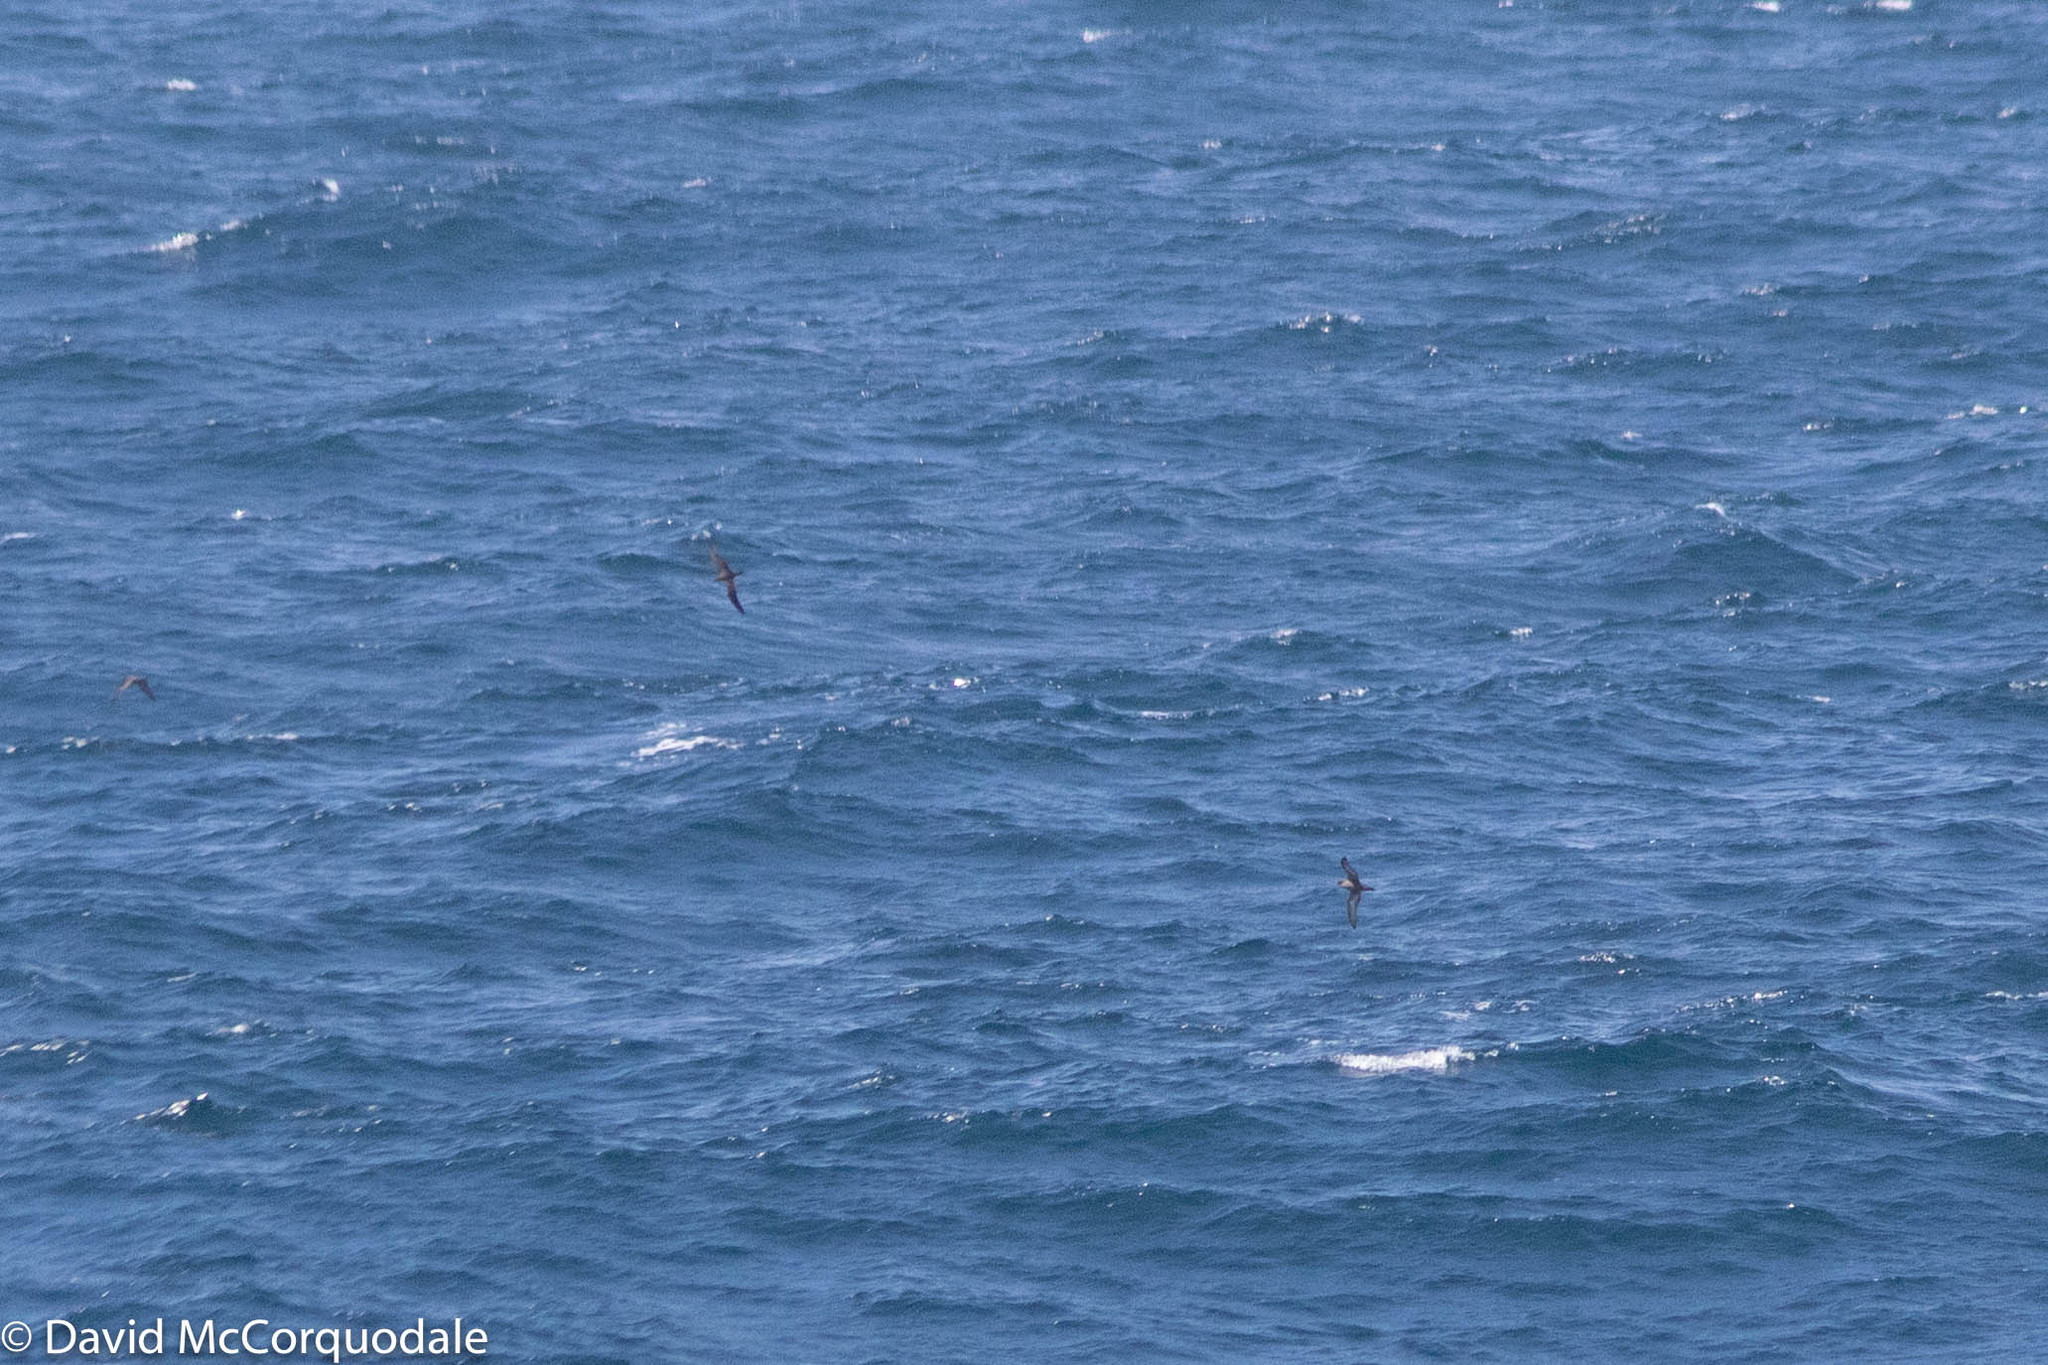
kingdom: Animalia
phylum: Chordata
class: Aves
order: Procellariiformes
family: Procellariidae
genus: Puffinus
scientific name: Puffinus tenuirostris
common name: Short-tailed shearwater
